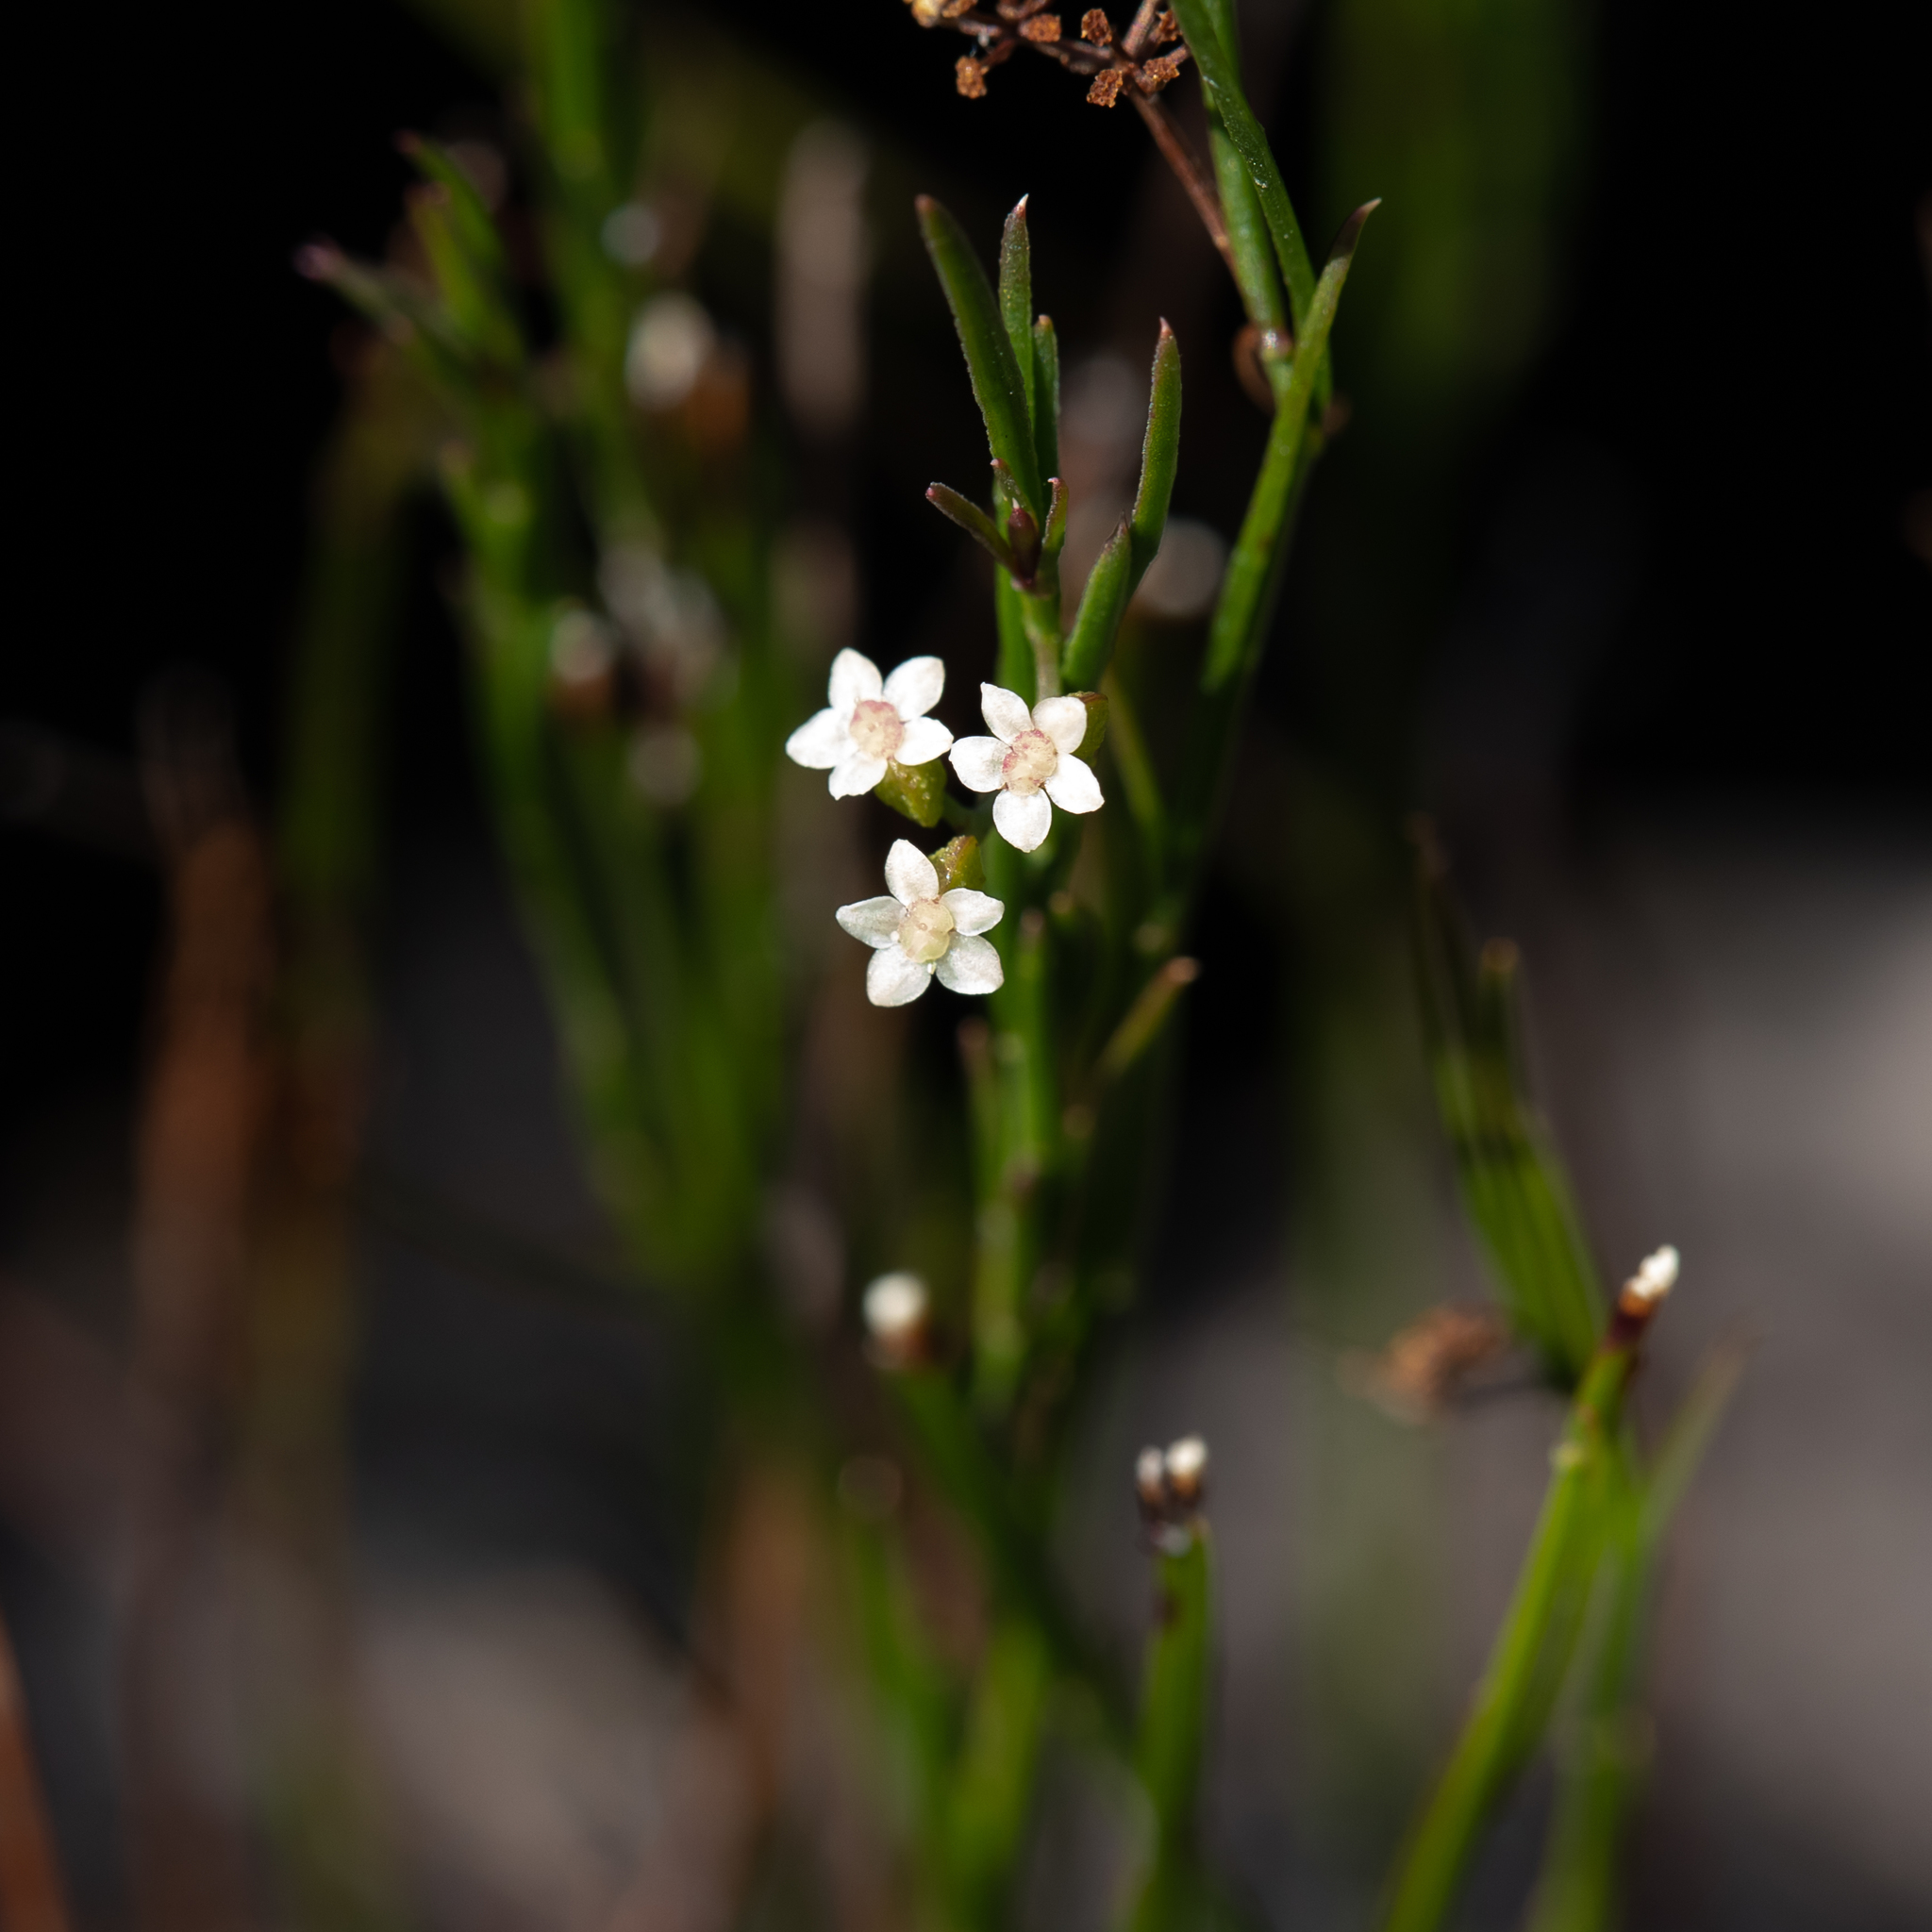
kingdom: Plantae
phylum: Tracheophyta
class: Magnoliopsida
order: Apiales
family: Apiaceae
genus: Platysace
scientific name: Platysace heterophylla
